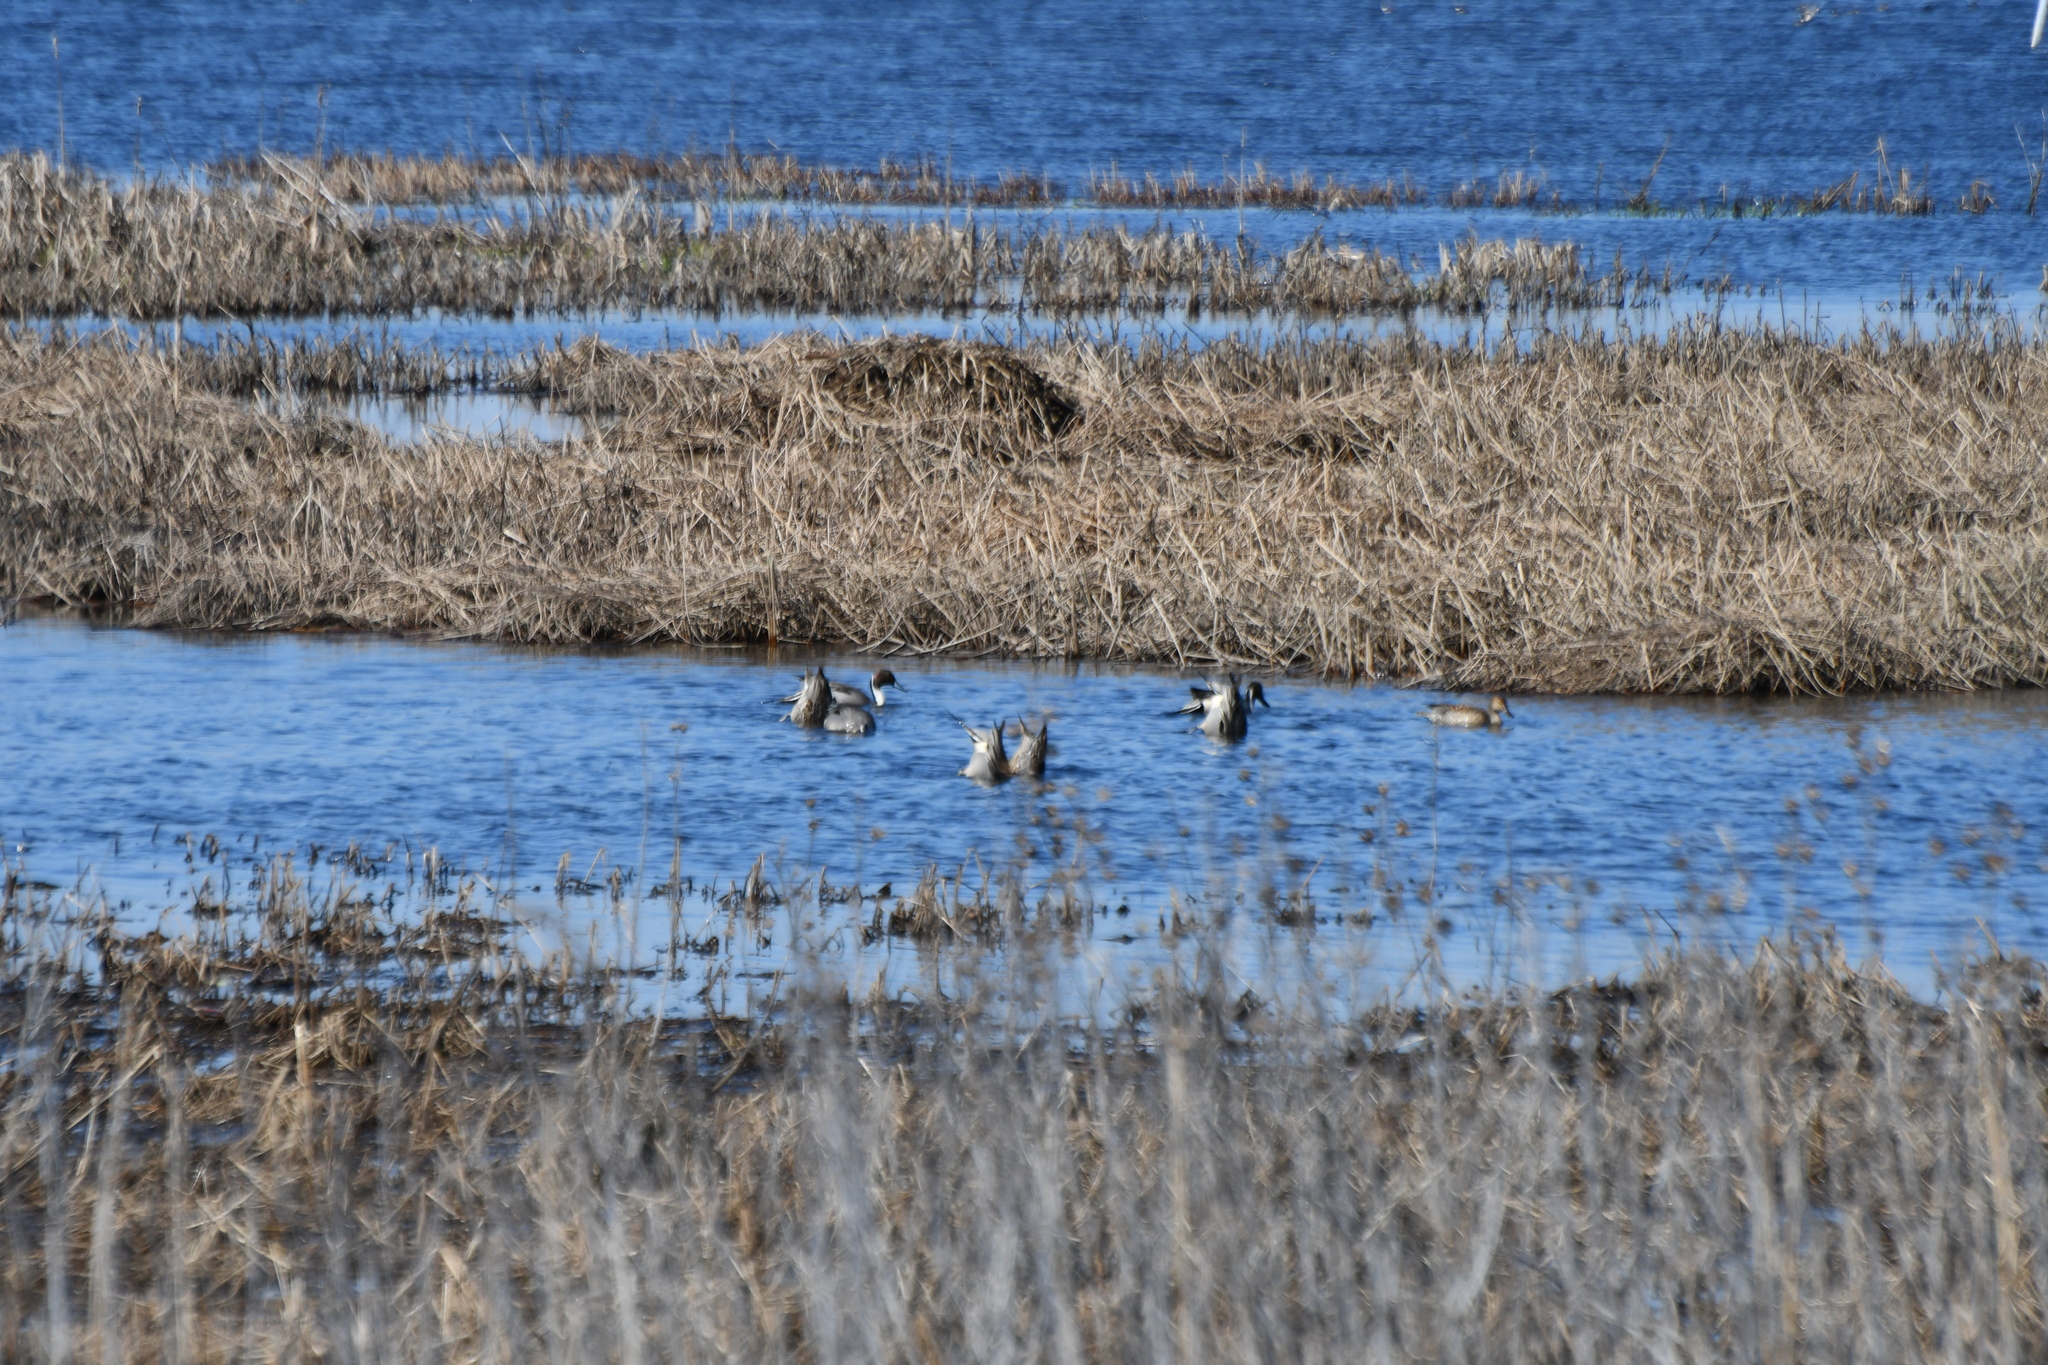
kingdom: Animalia
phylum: Chordata
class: Aves
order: Anseriformes
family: Anatidae
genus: Anas
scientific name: Anas acuta
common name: Northern pintail
